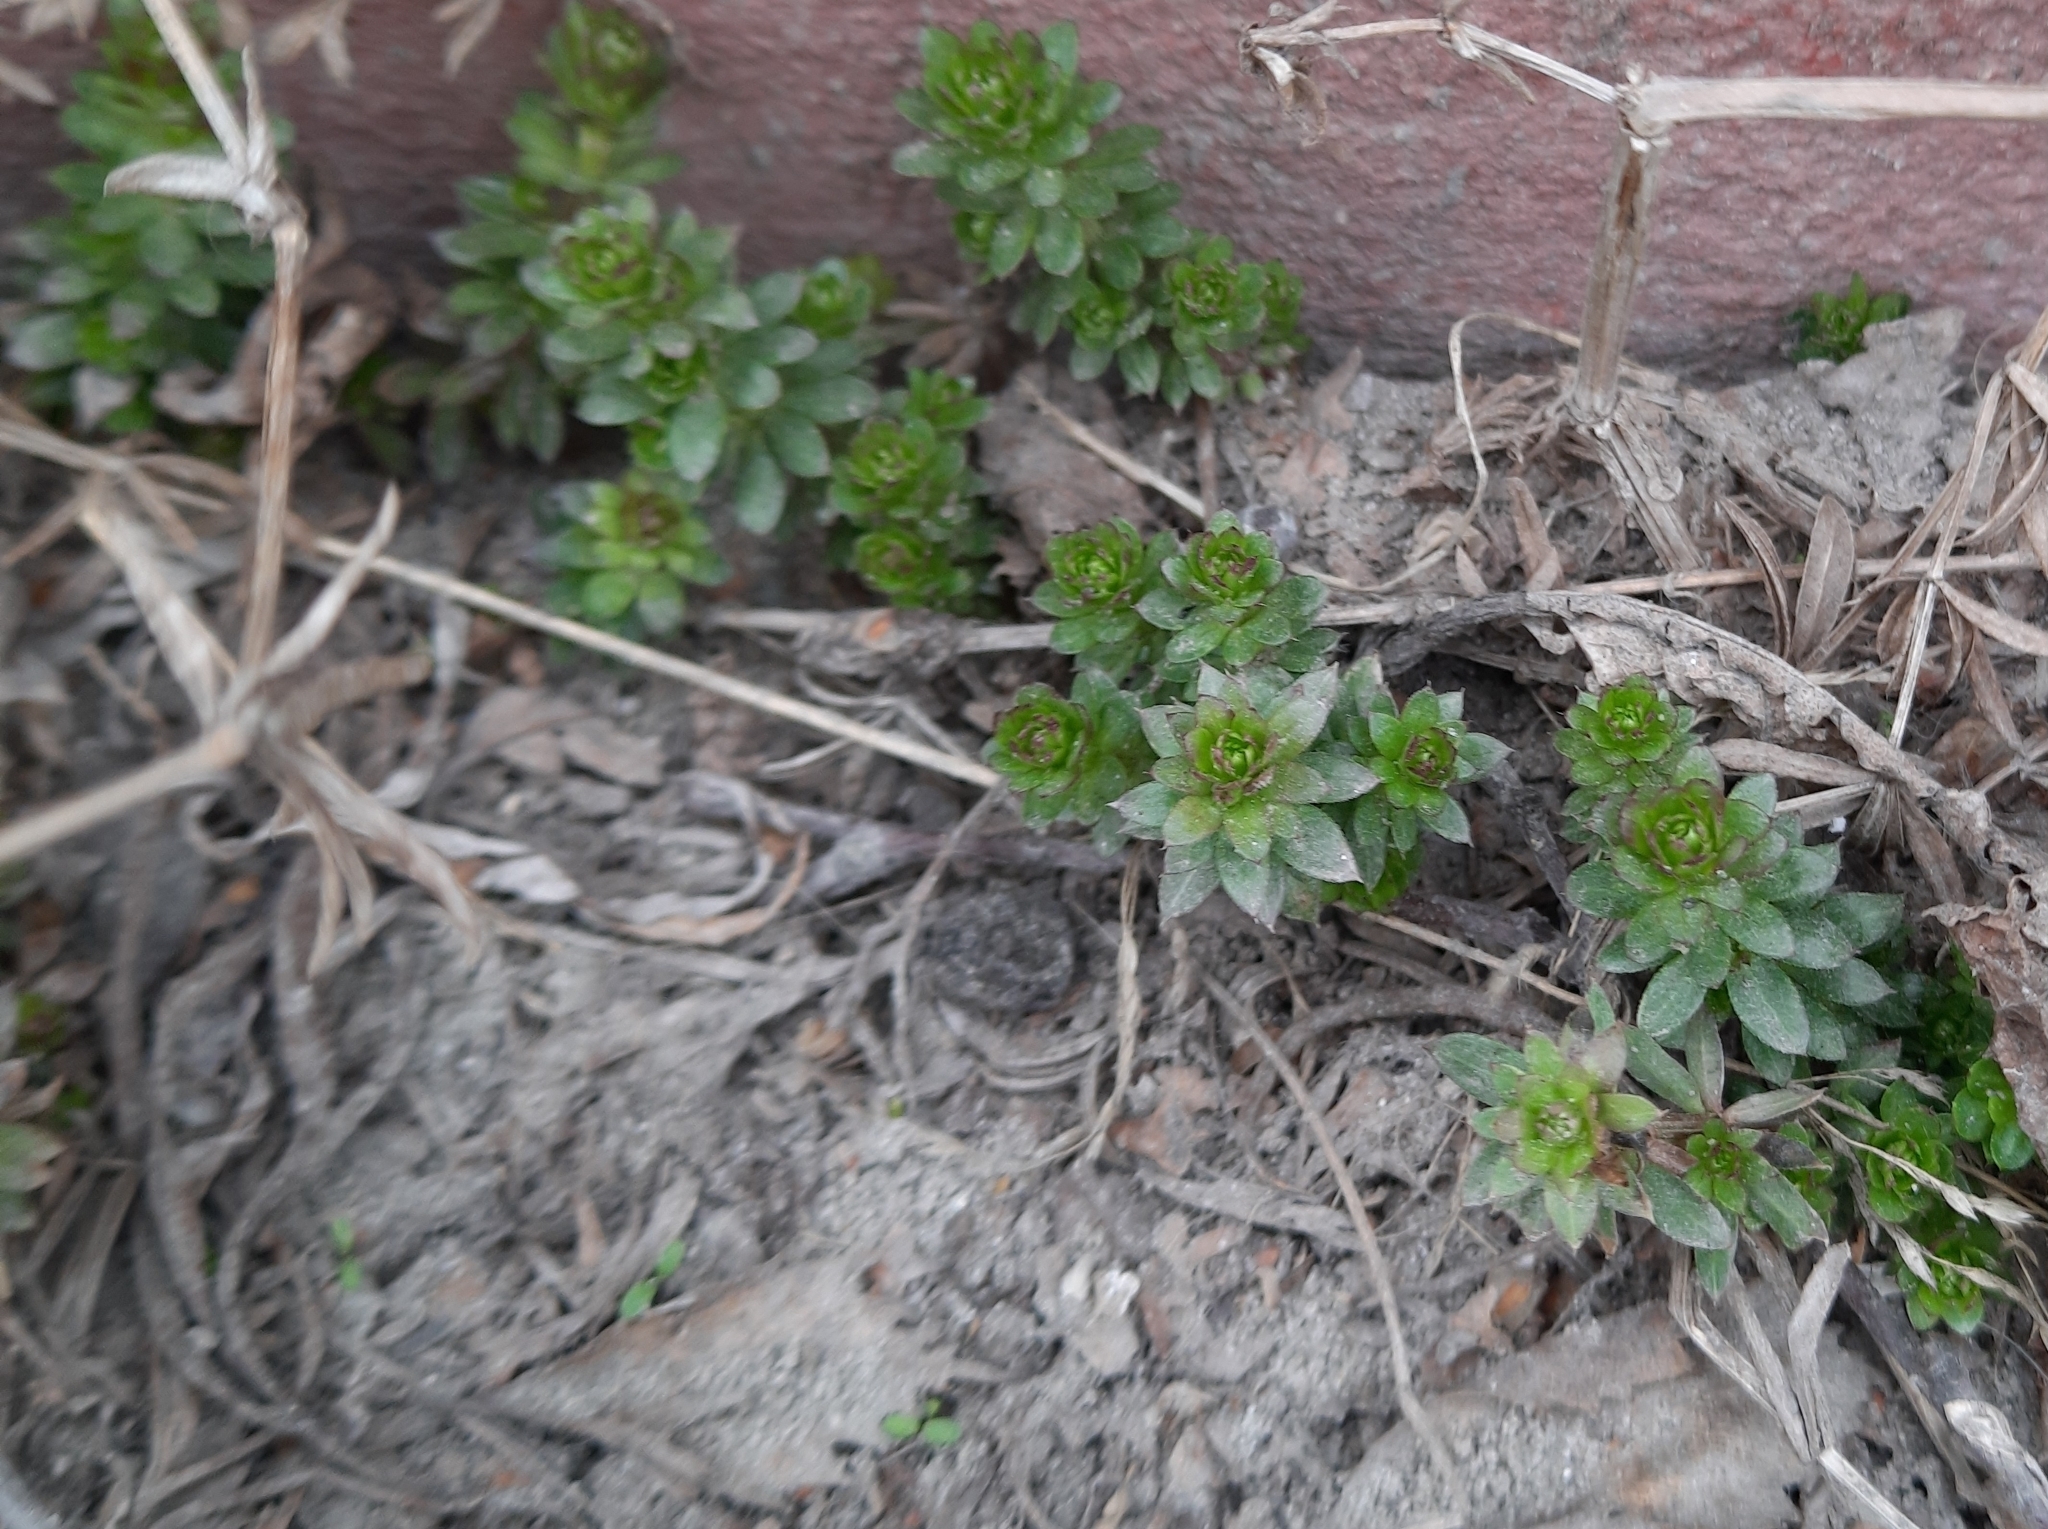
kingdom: Plantae
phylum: Tracheophyta
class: Magnoliopsida
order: Gentianales
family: Rubiaceae
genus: Galium
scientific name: Galium mollugo
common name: Hedge bedstraw
